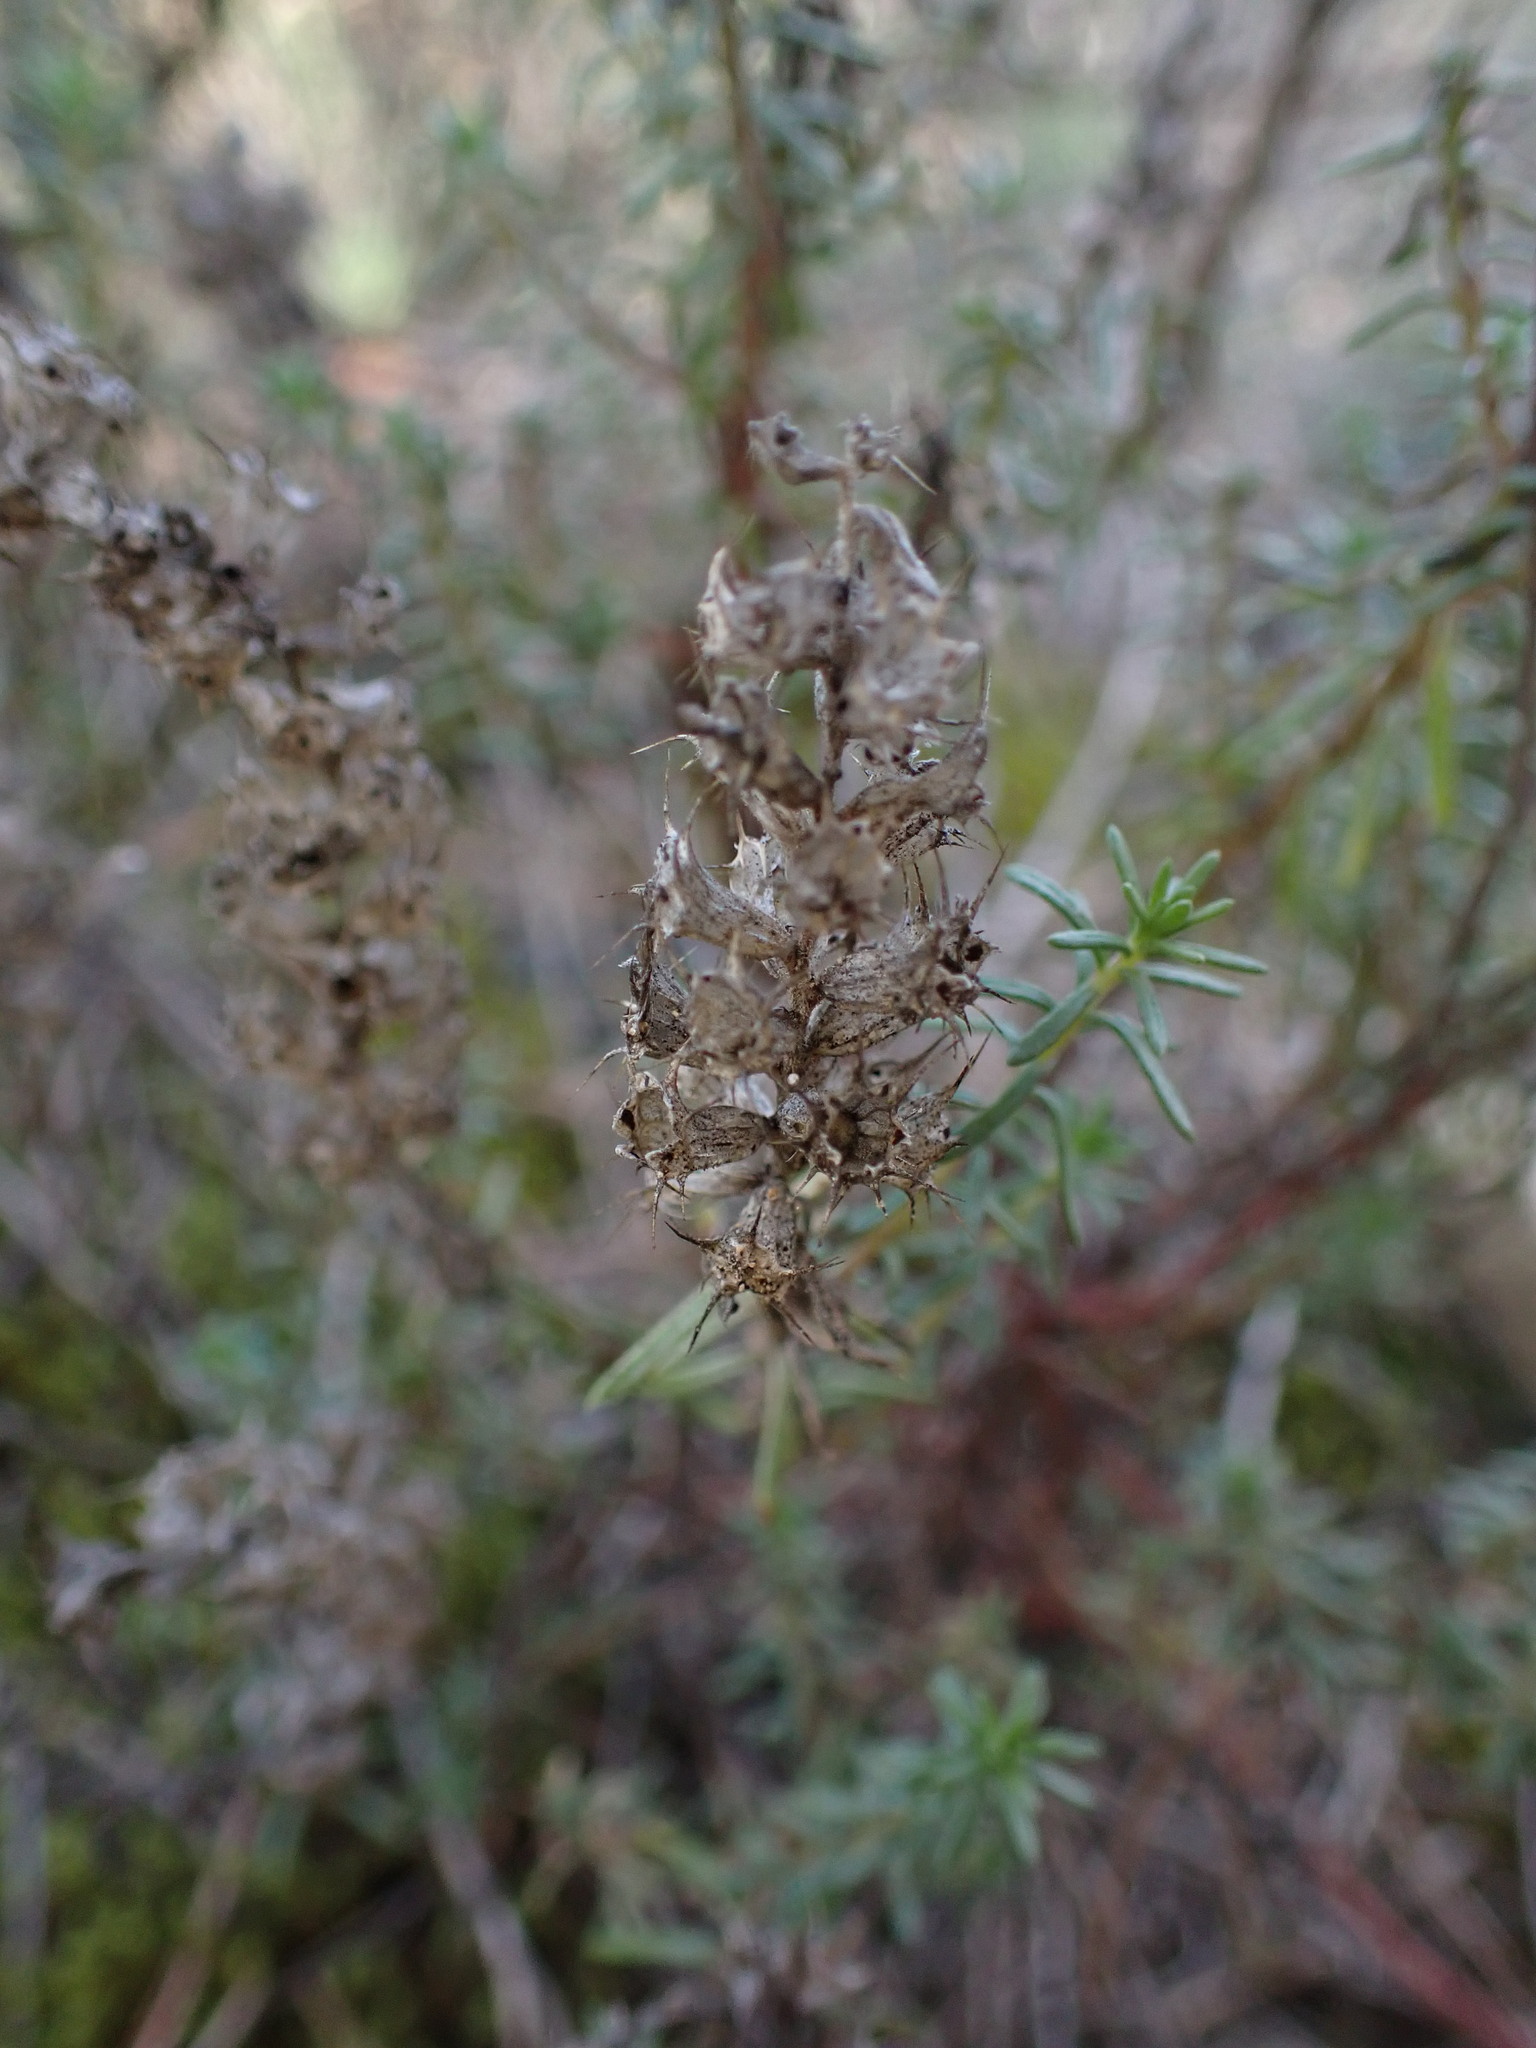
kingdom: Plantae
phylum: Tracheophyta
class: Magnoliopsida
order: Ericales
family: Primulaceae
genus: Coris
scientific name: Coris monspeliensis
